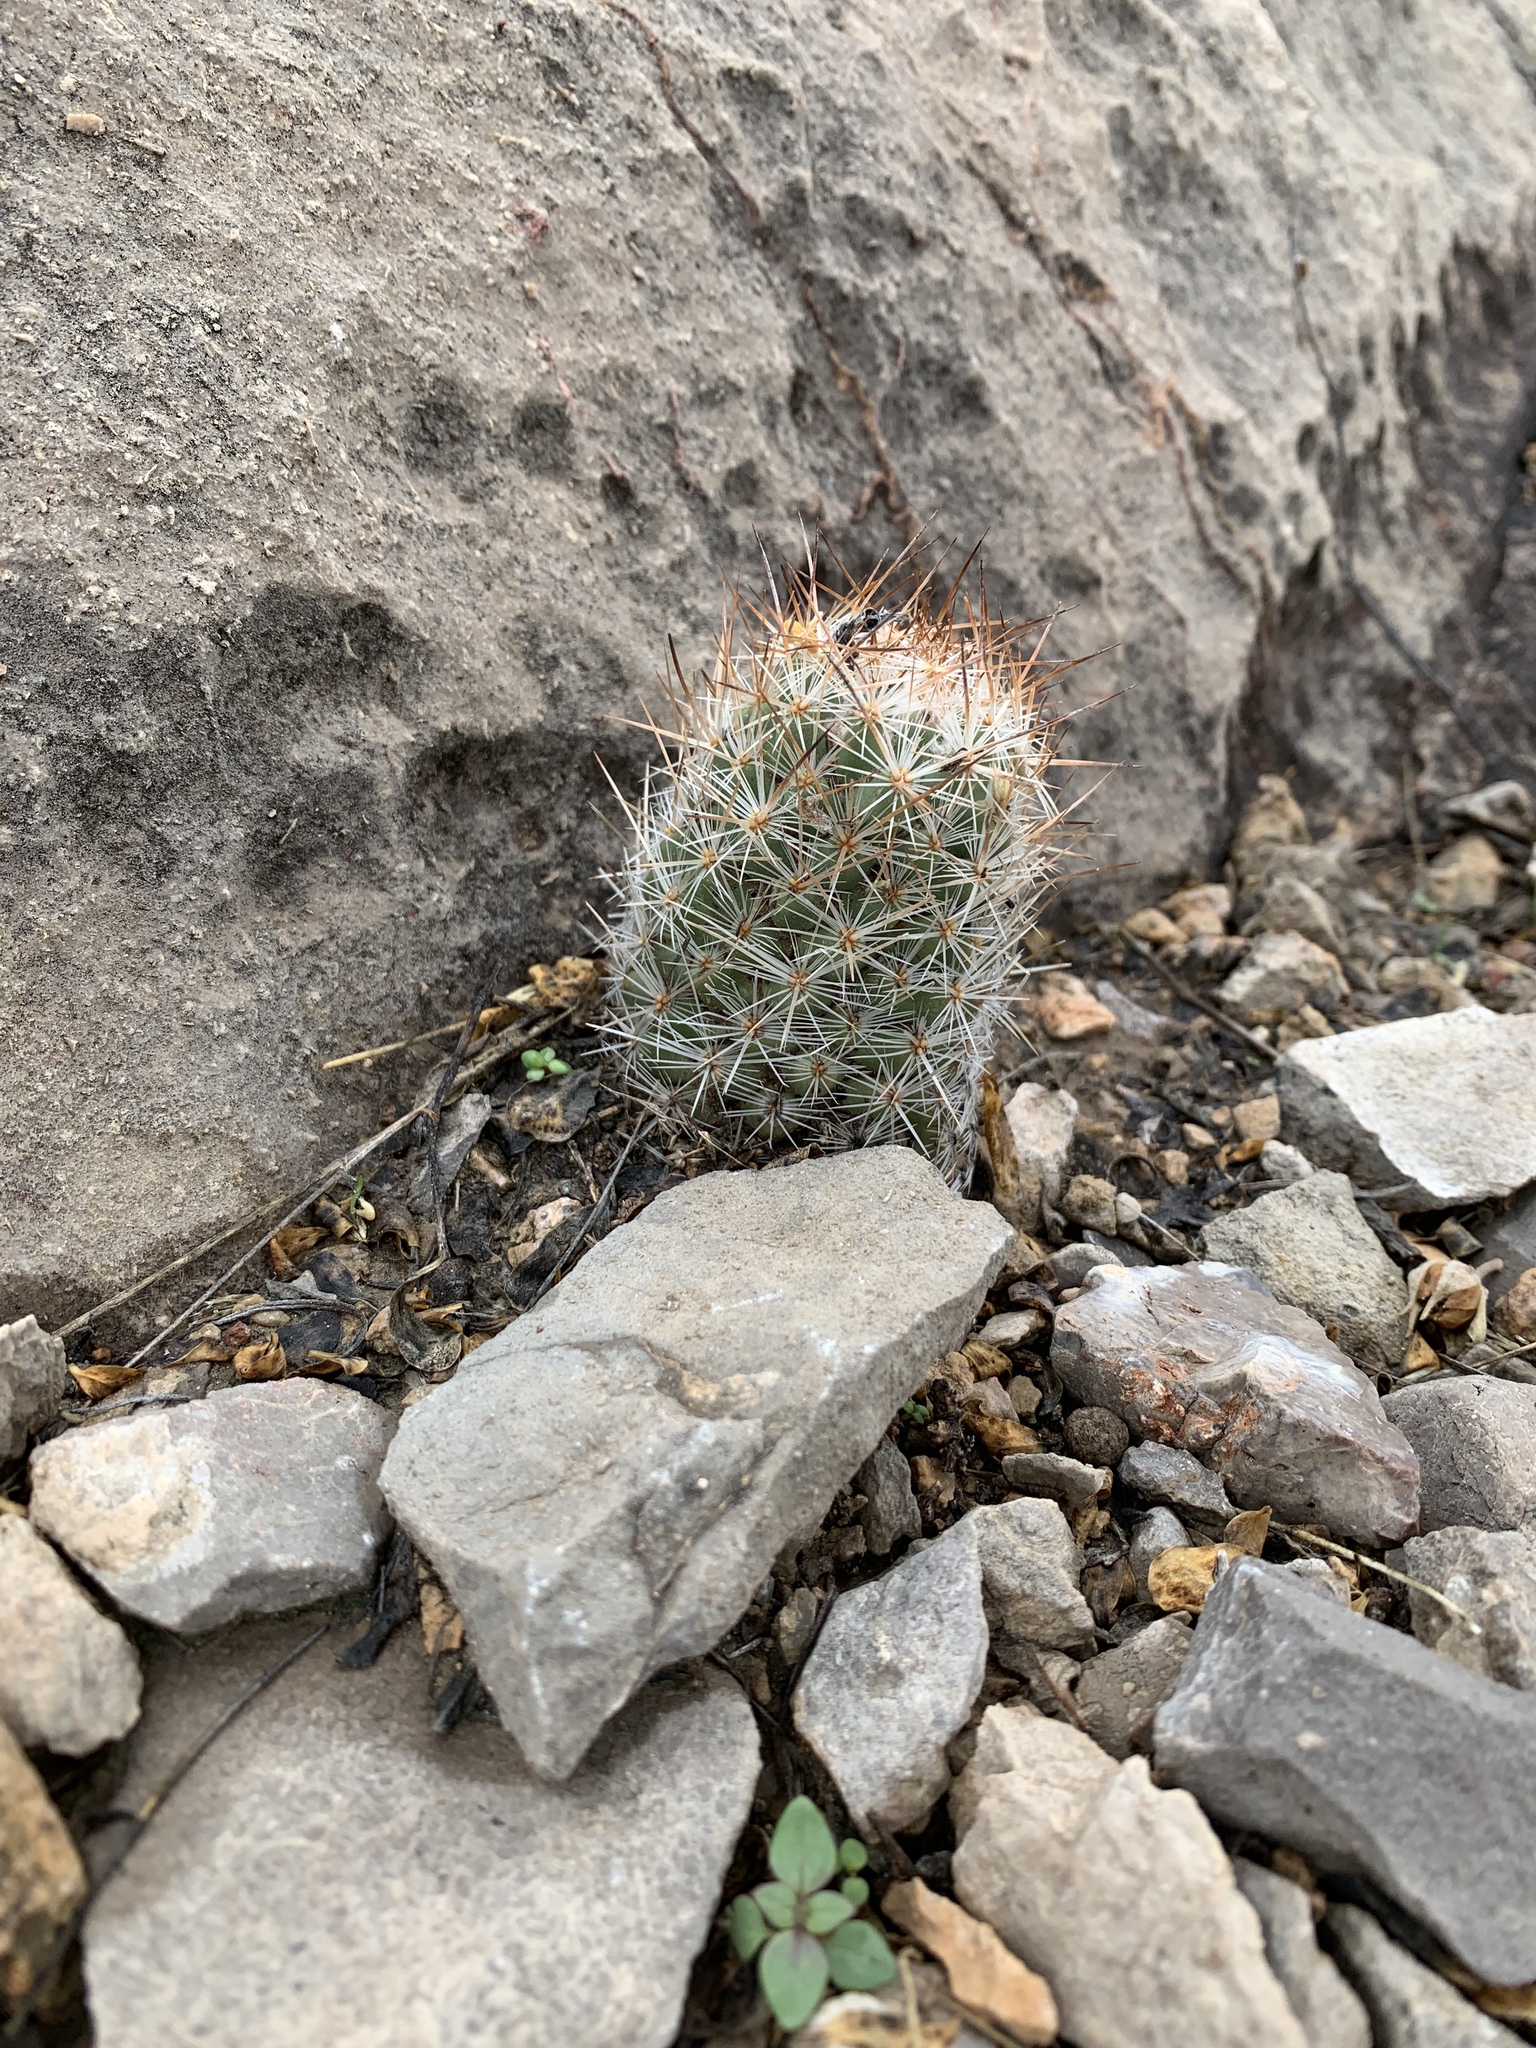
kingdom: Plantae
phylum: Tracheophyta
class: Magnoliopsida
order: Caryophyllales
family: Cactaceae
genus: Pelecyphora
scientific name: Pelecyphora tuberculosa
